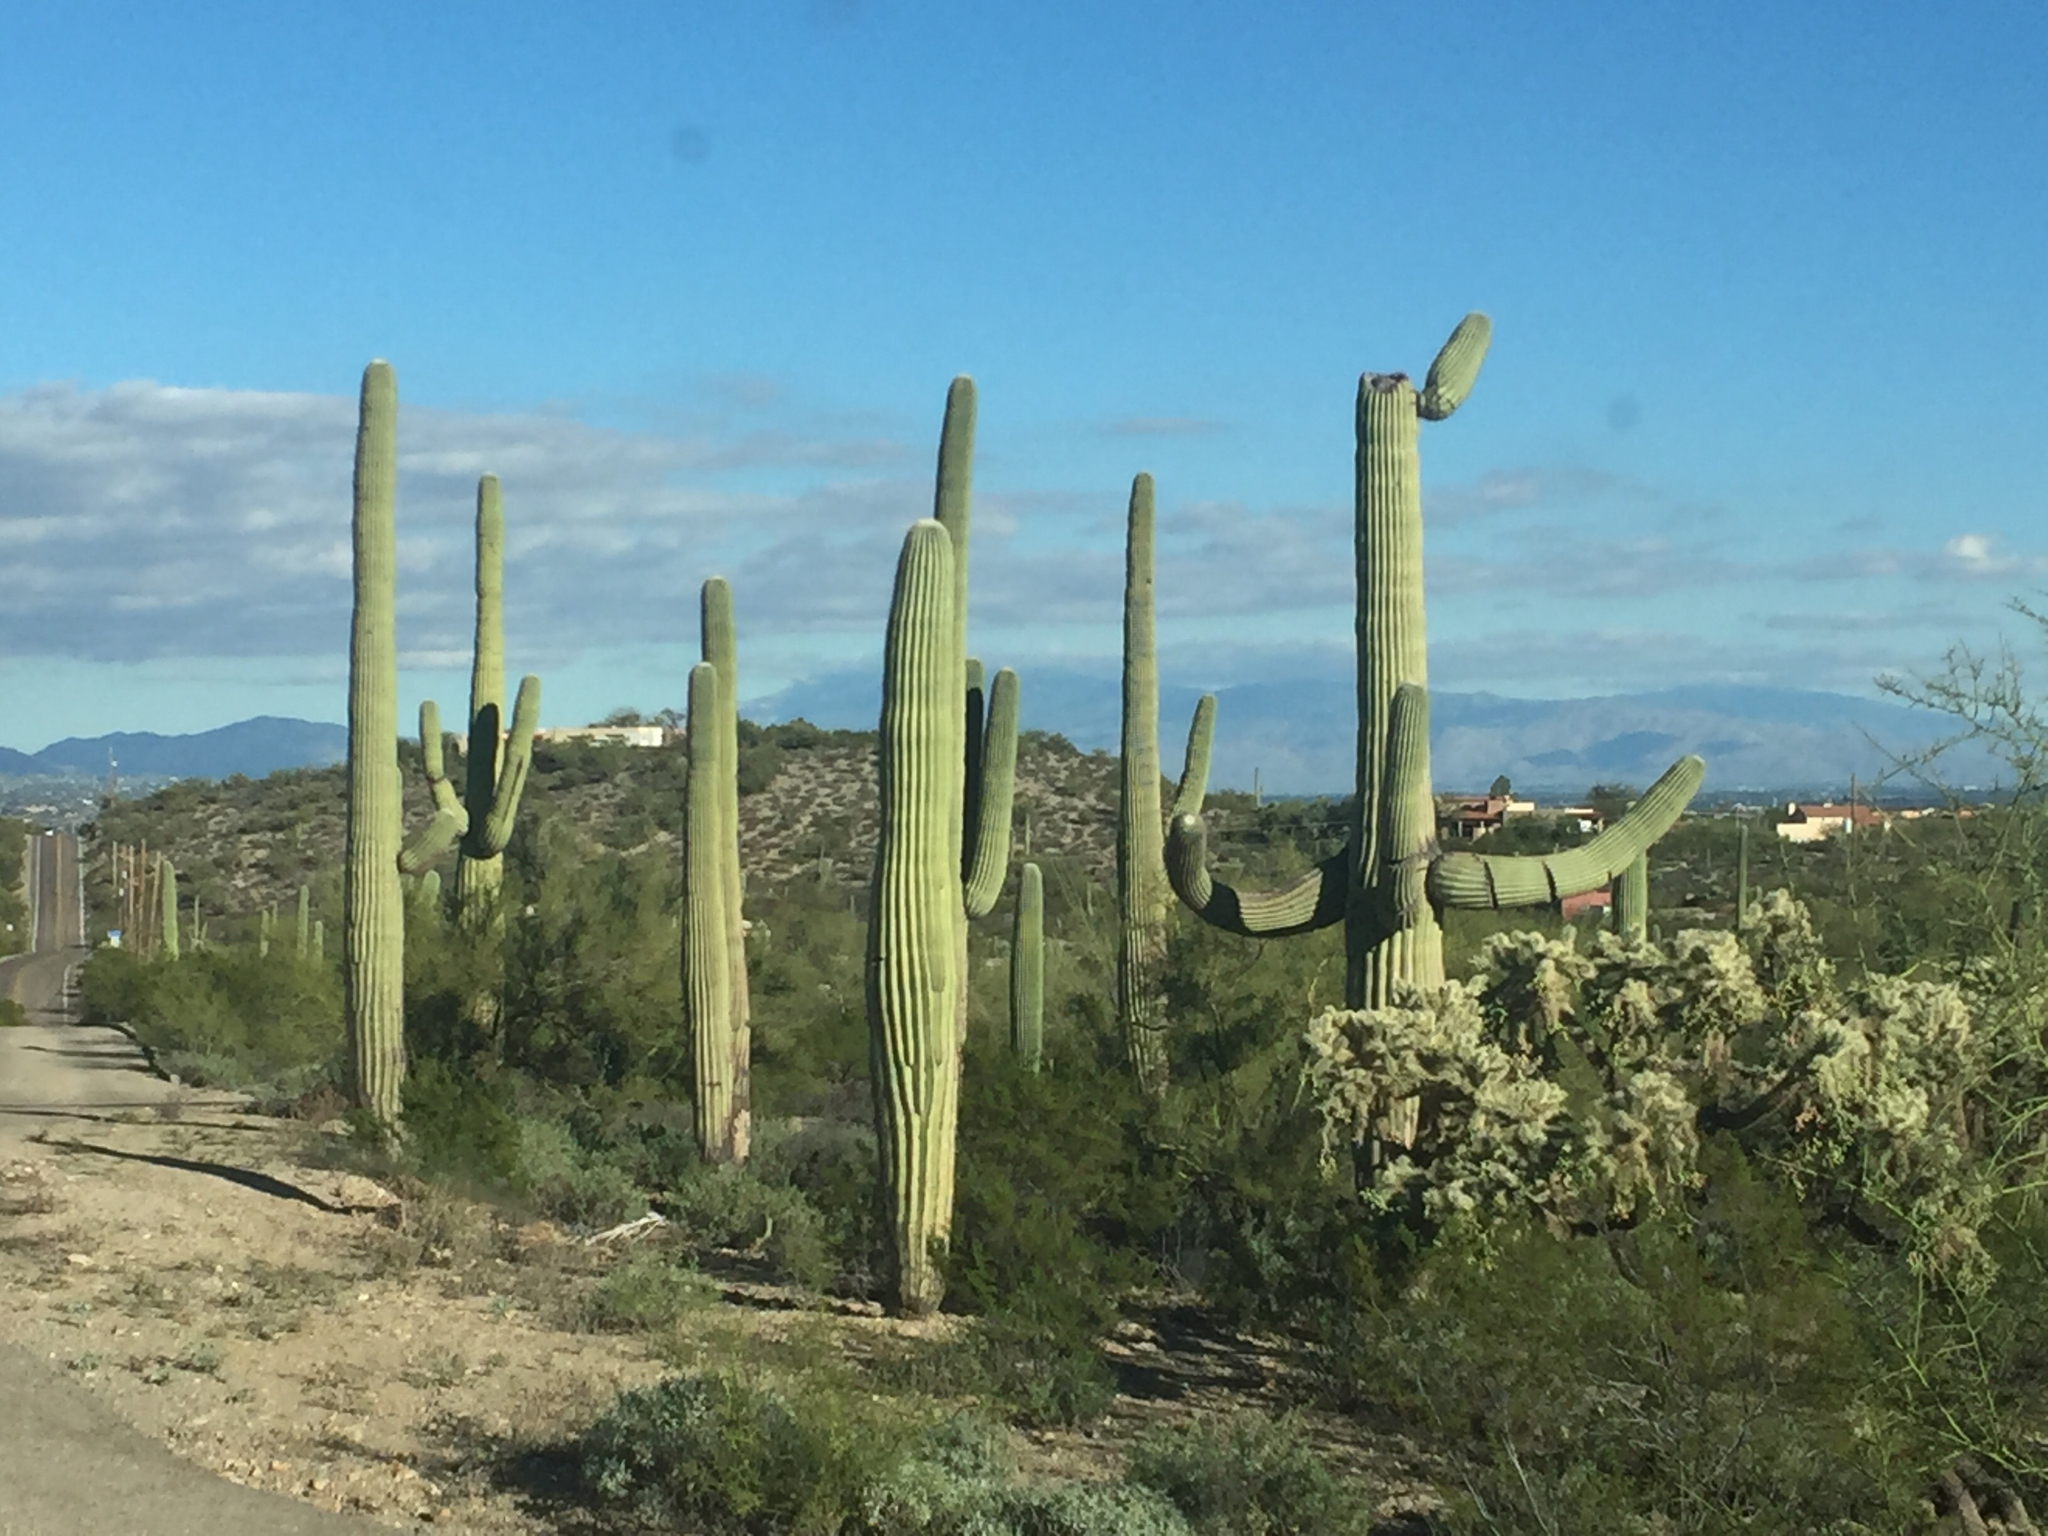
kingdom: Plantae
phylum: Tracheophyta
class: Magnoliopsida
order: Caryophyllales
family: Cactaceae
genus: Carnegiea
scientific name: Carnegiea gigantea
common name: Saguaro
